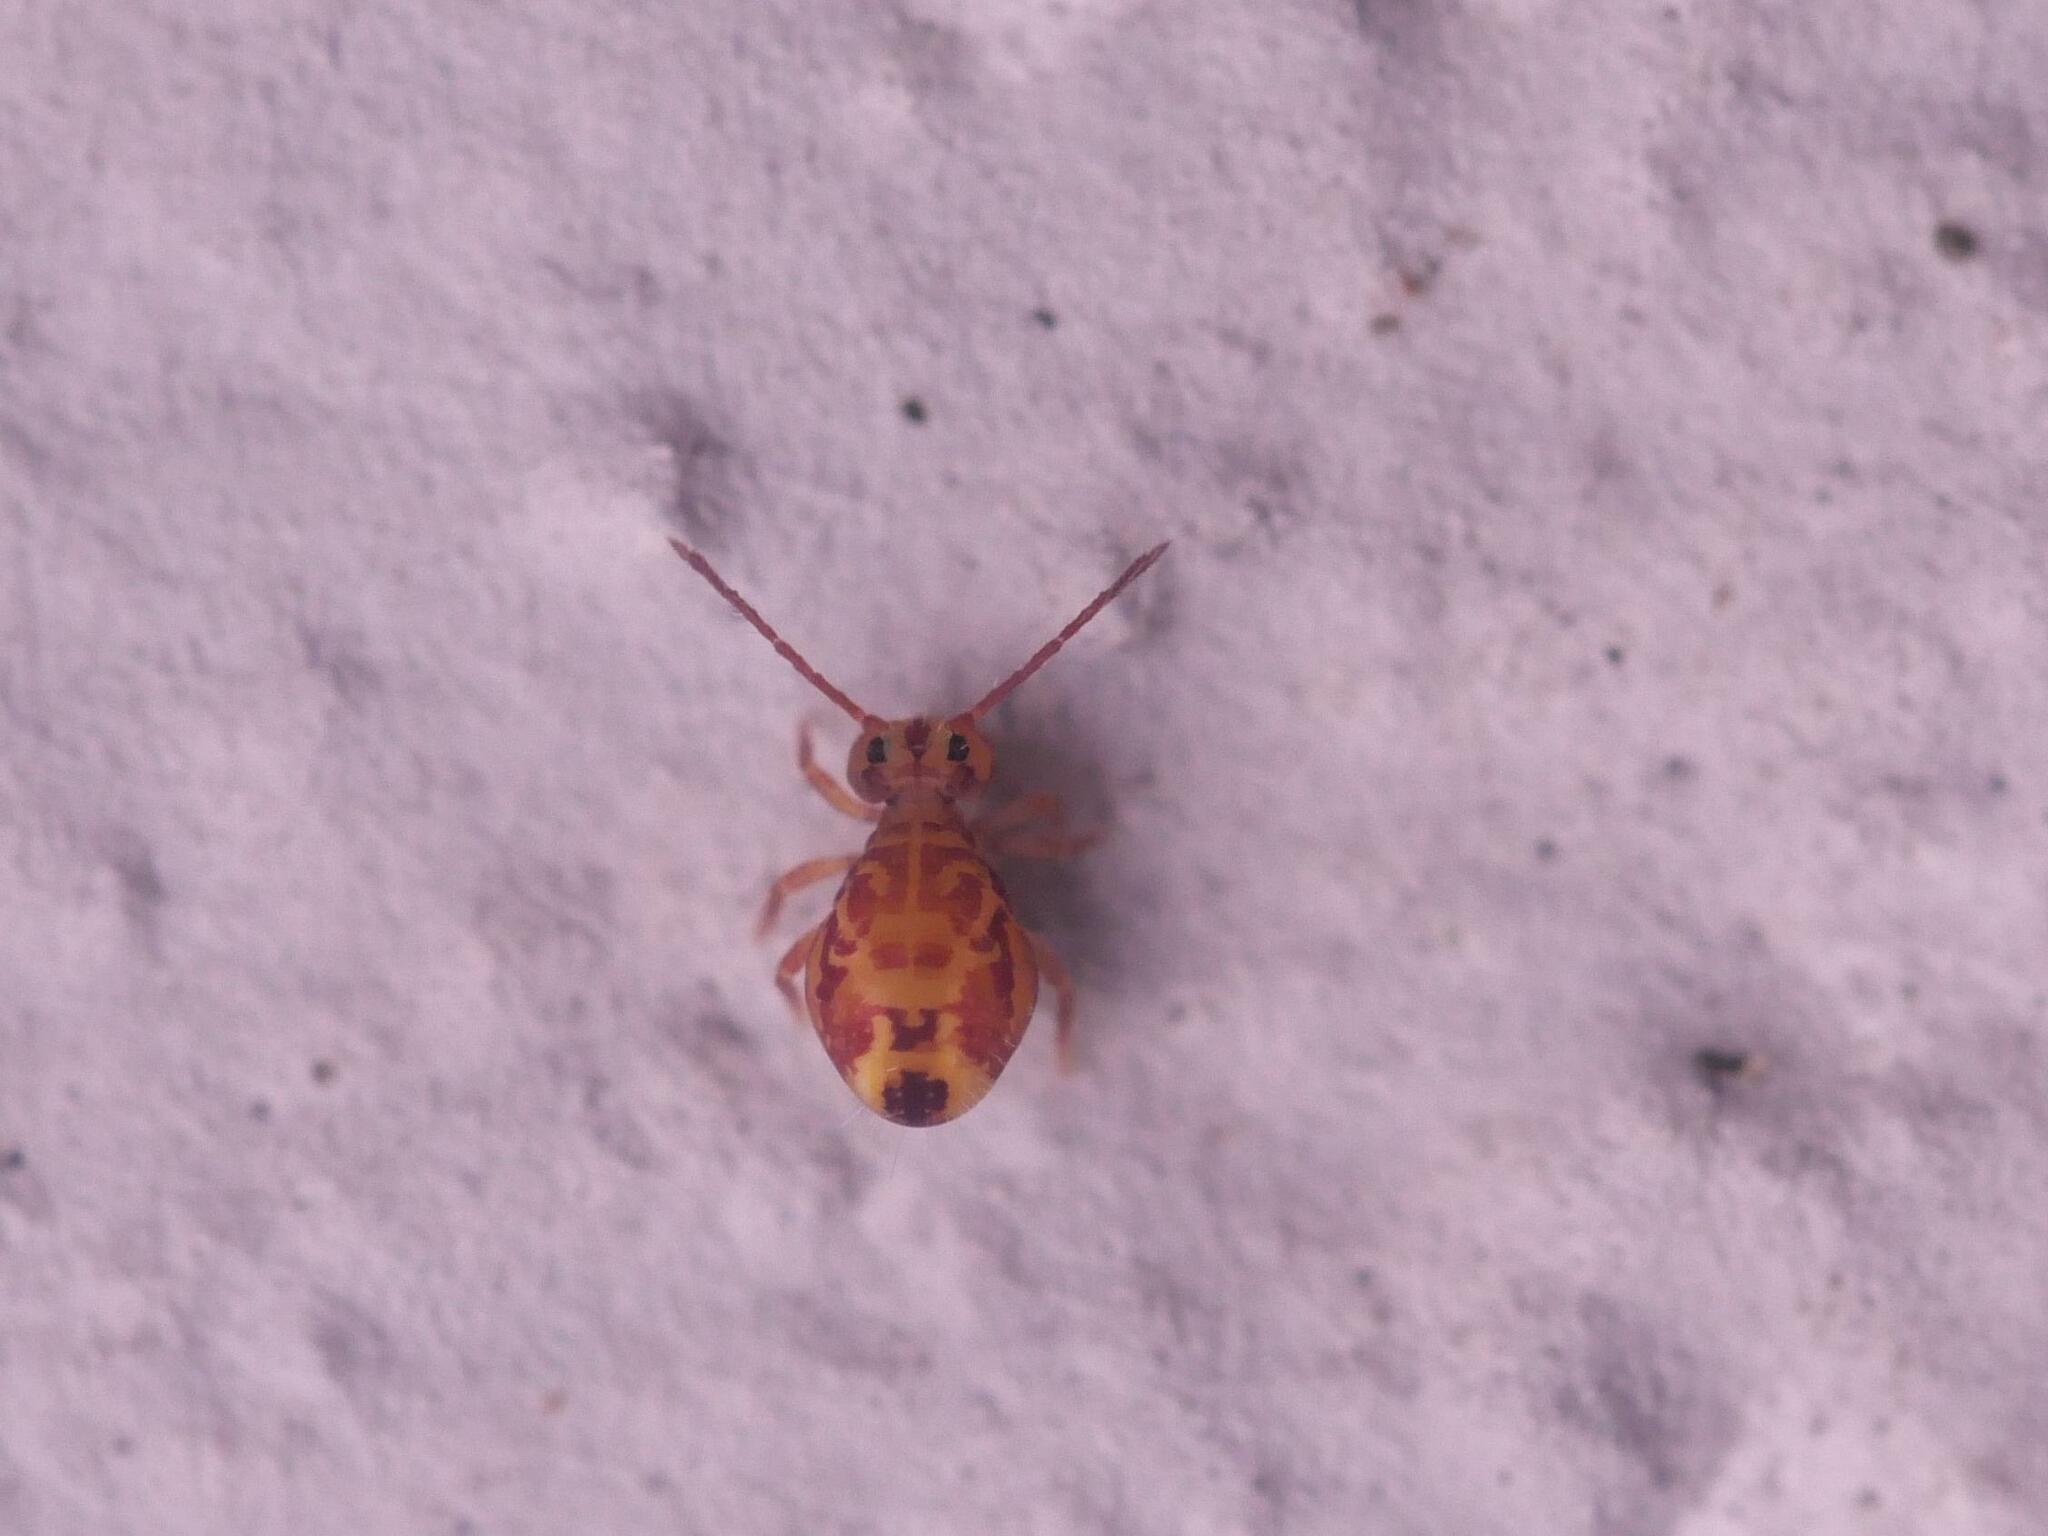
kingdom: Animalia
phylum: Arthropoda
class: Collembola
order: Symphypleona
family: Dicyrtomidae
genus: Dicyrtomina
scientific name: Dicyrtomina ornata
